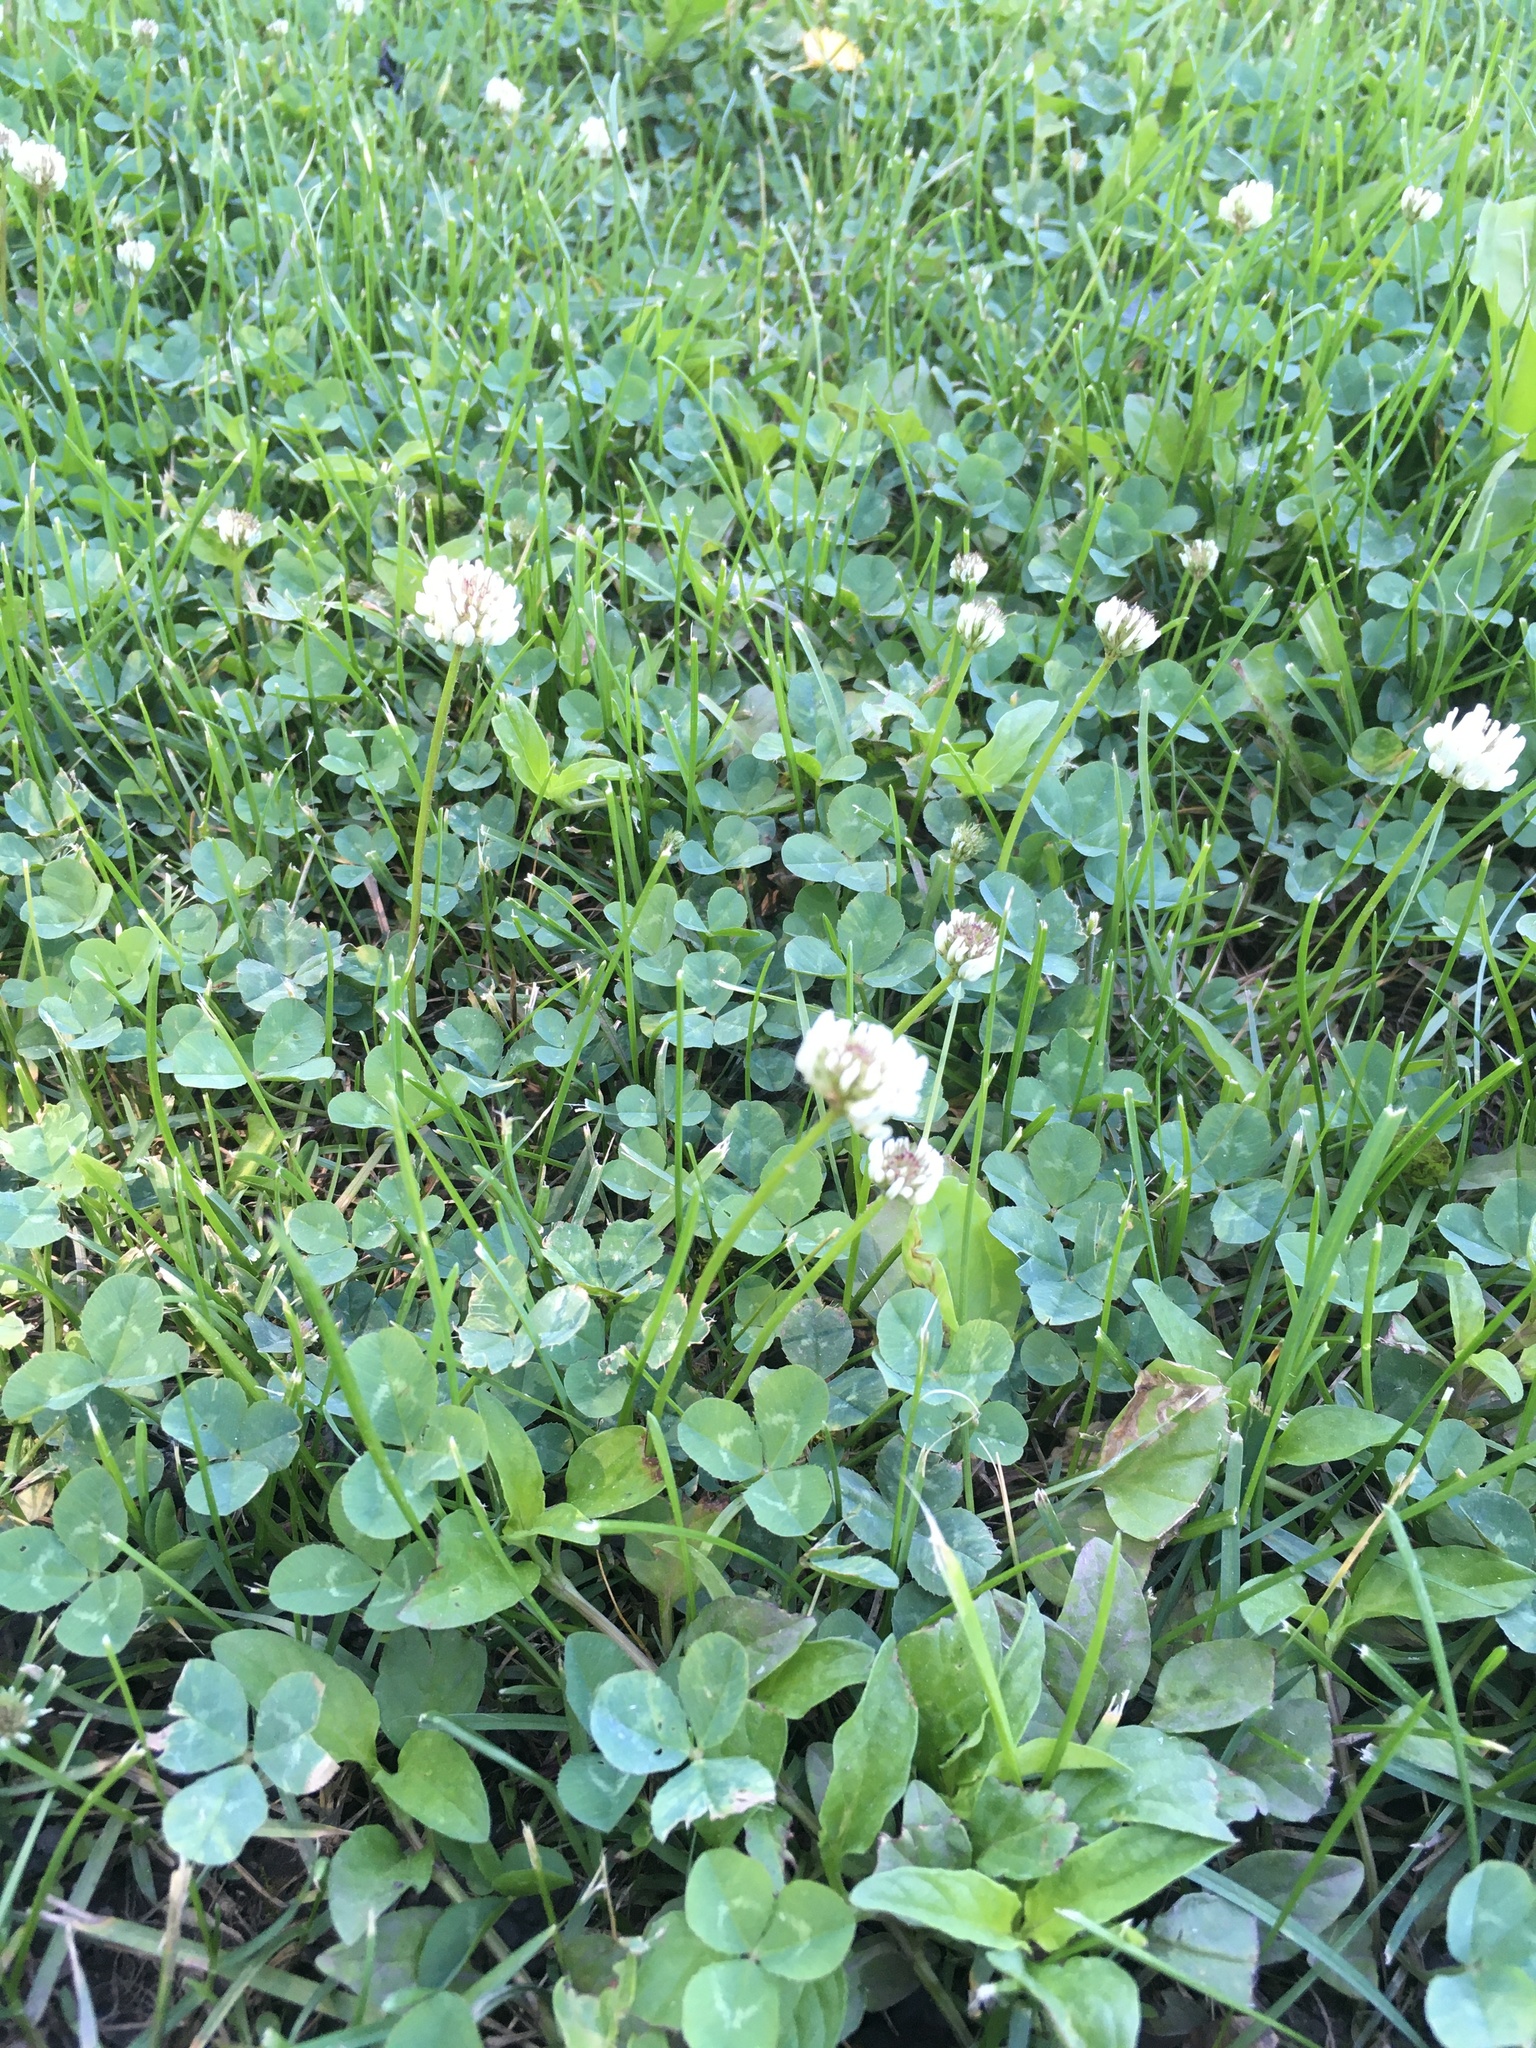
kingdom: Plantae
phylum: Tracheophyta
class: Magnoliopsida
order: Fabales
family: Fabaceae
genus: Trifolium
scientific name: Trifolium repens
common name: White clover
